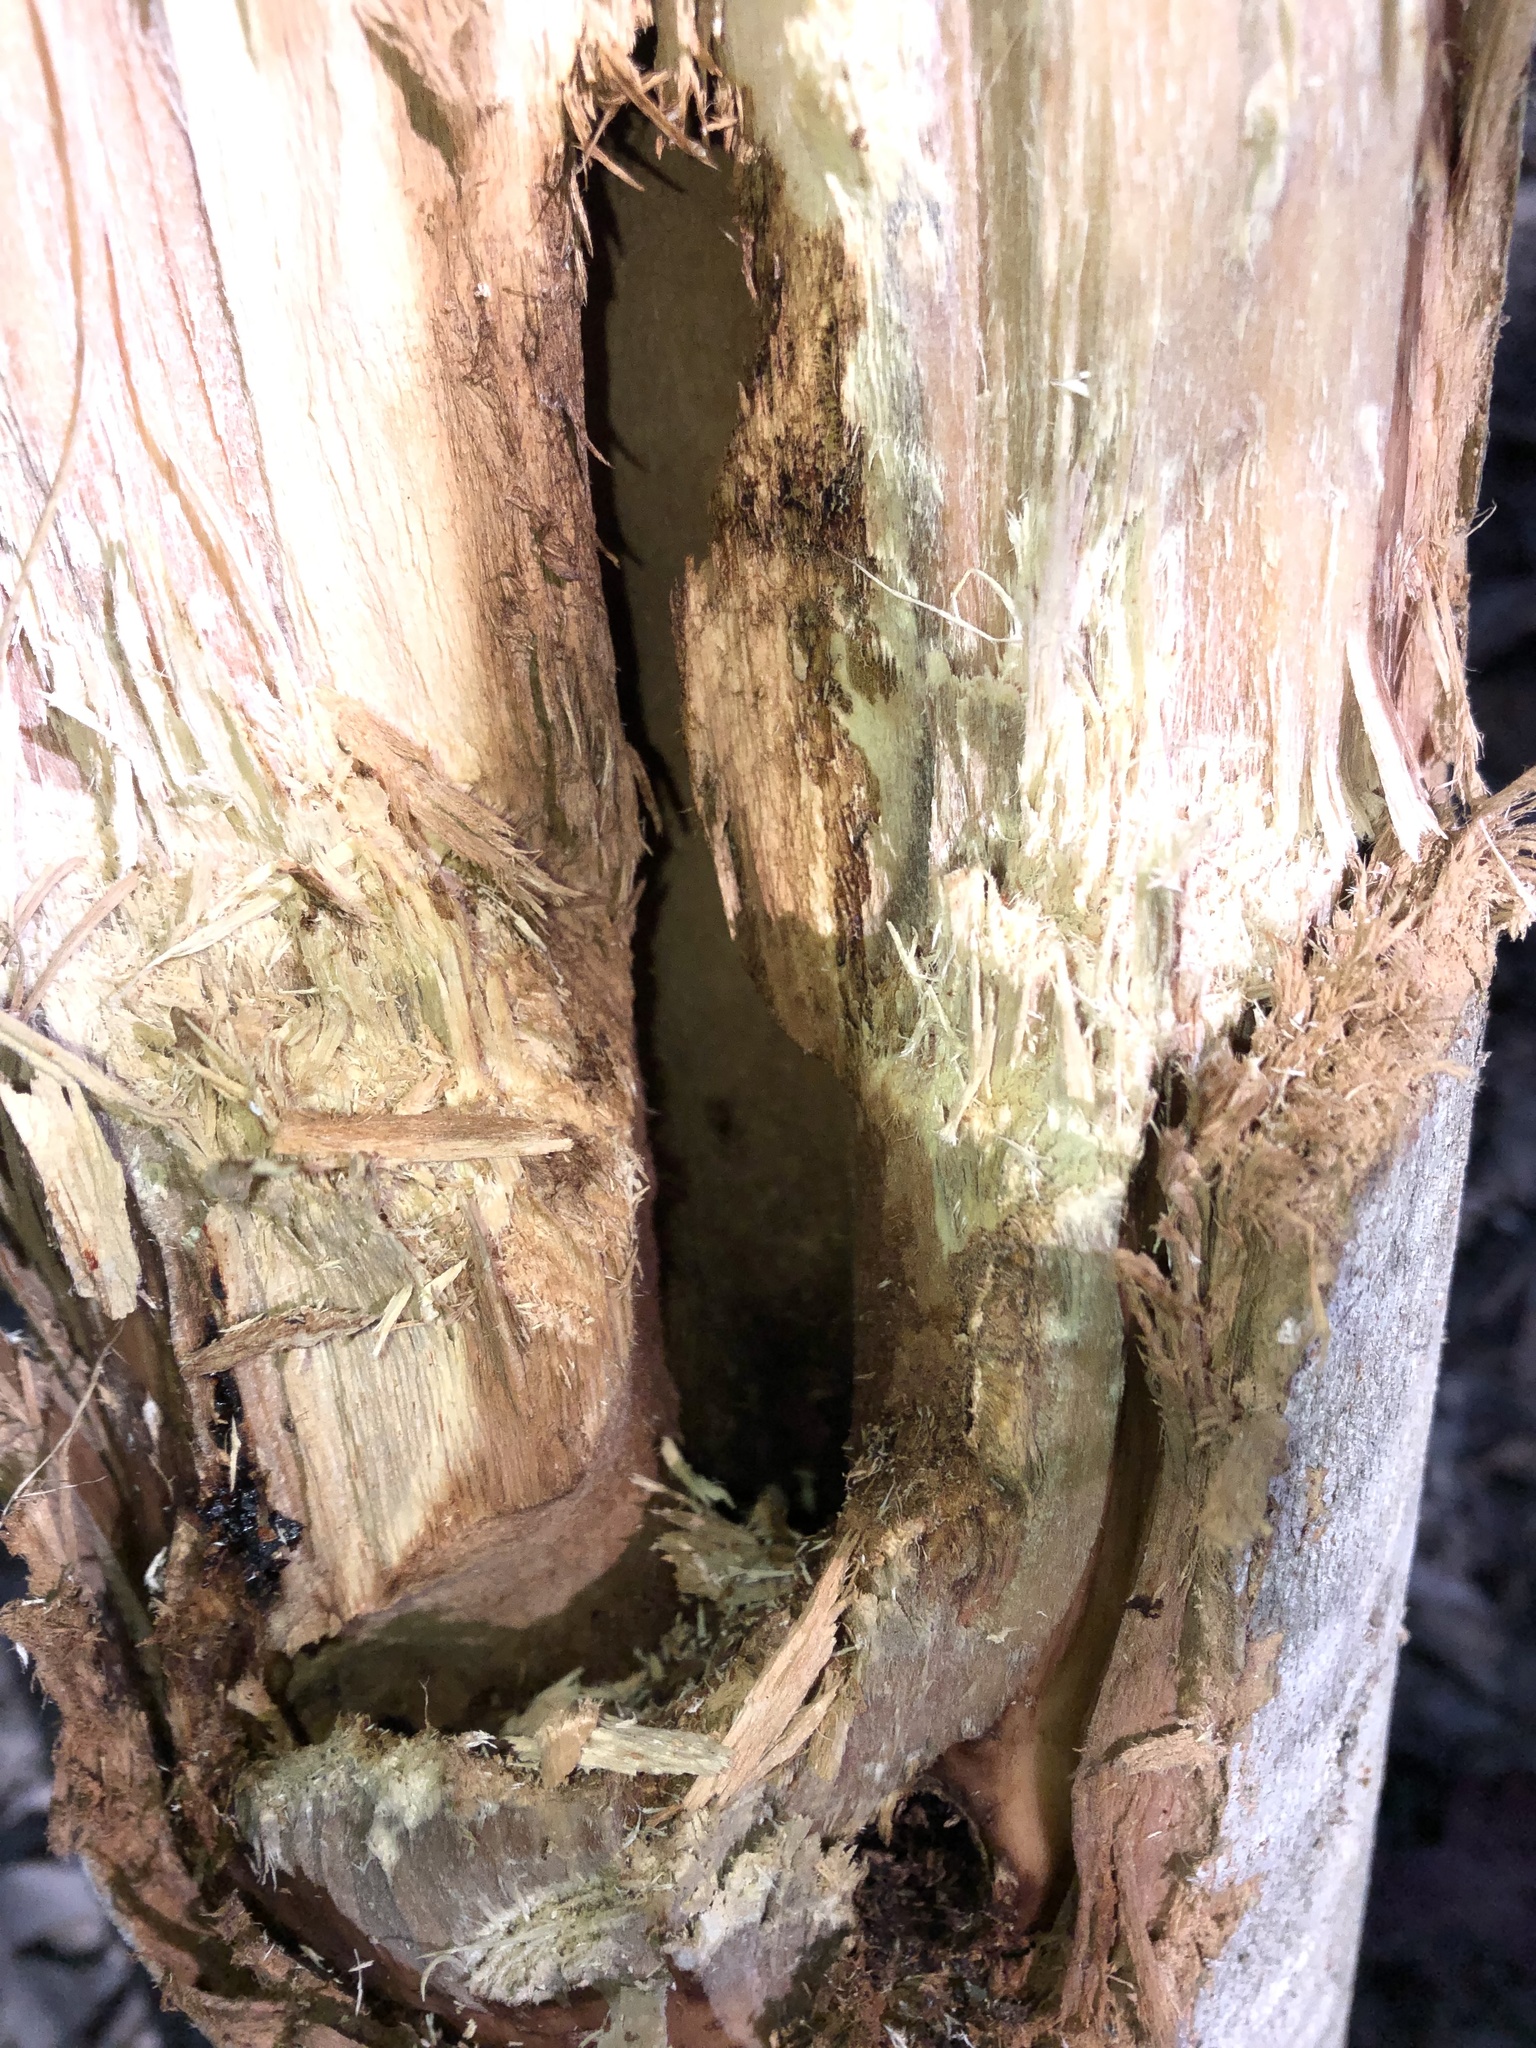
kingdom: Animalia
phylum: Chordata
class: Aves
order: Psittaciformes
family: Cacatuidae
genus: Zanda
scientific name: Zanda funerea
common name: Yellow-tailed black-cockatoo
